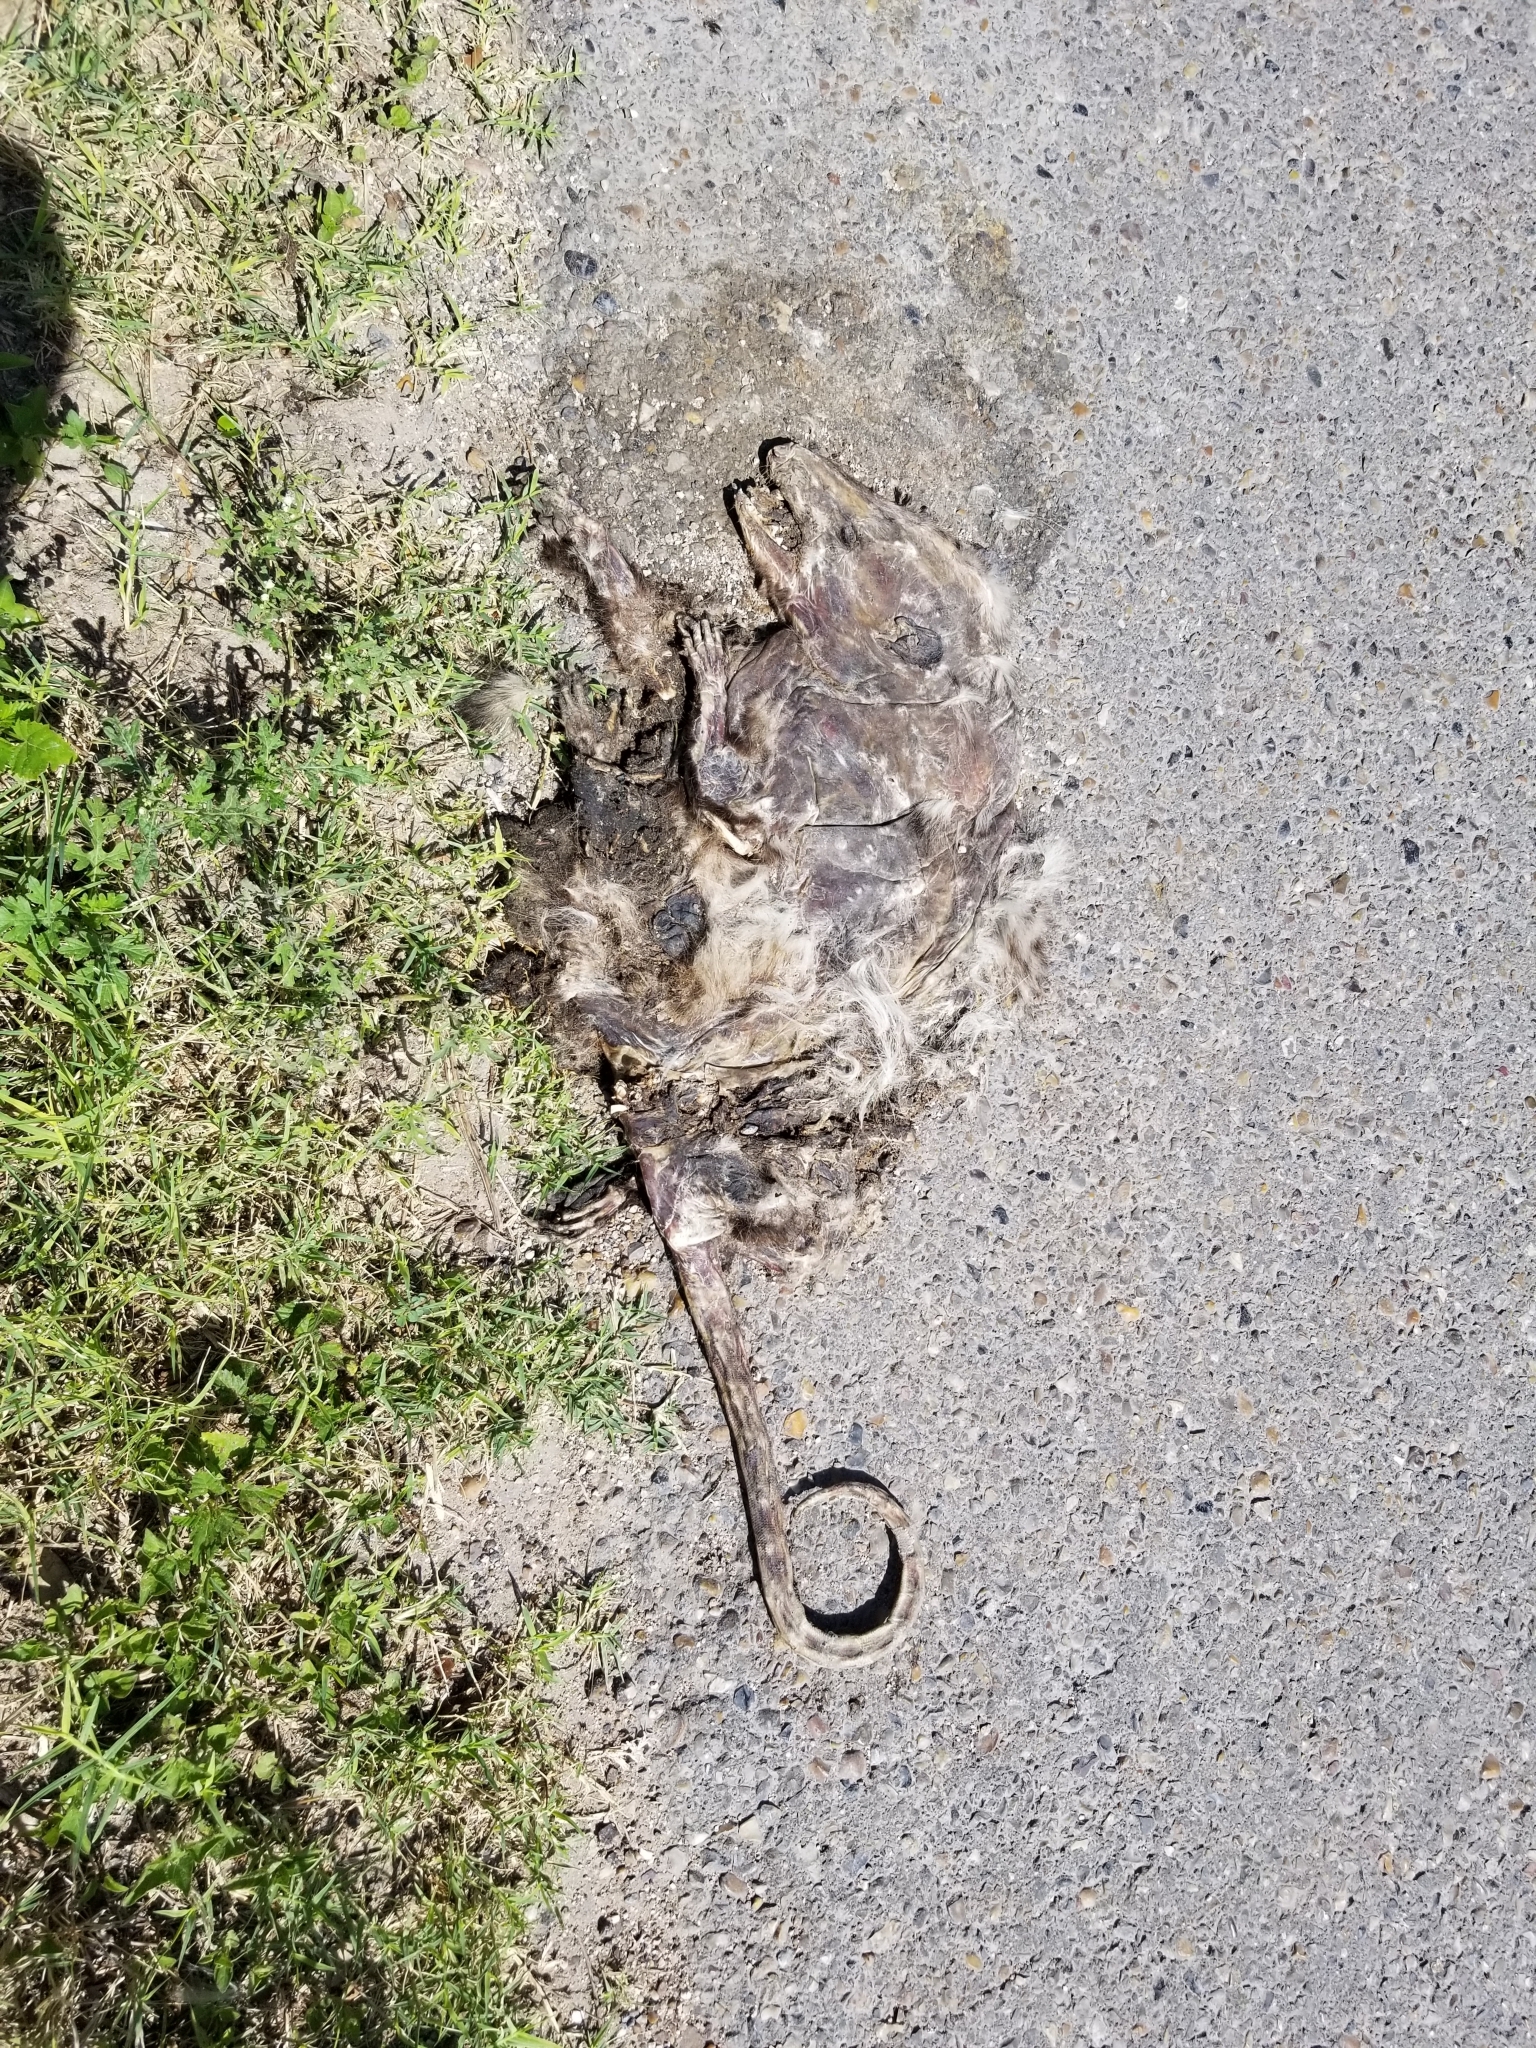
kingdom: Animalia
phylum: Chordata
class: Mammalia
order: Didelphimorphia
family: Didelphidae
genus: Didelphis
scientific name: Didelphis virginiana
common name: Virginia opossum
